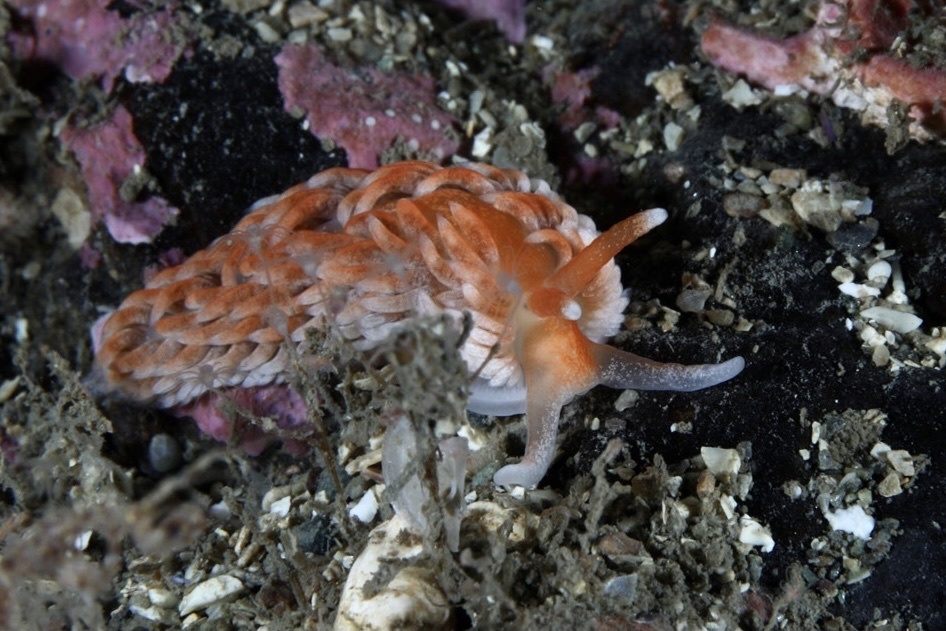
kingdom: Animalia
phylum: Mollusca
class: Gastropoda
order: Nudibranchia
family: Aeolidiidae
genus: Aeolidiella
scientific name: Aeolidiella glauca
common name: Orange-brown aeolid
